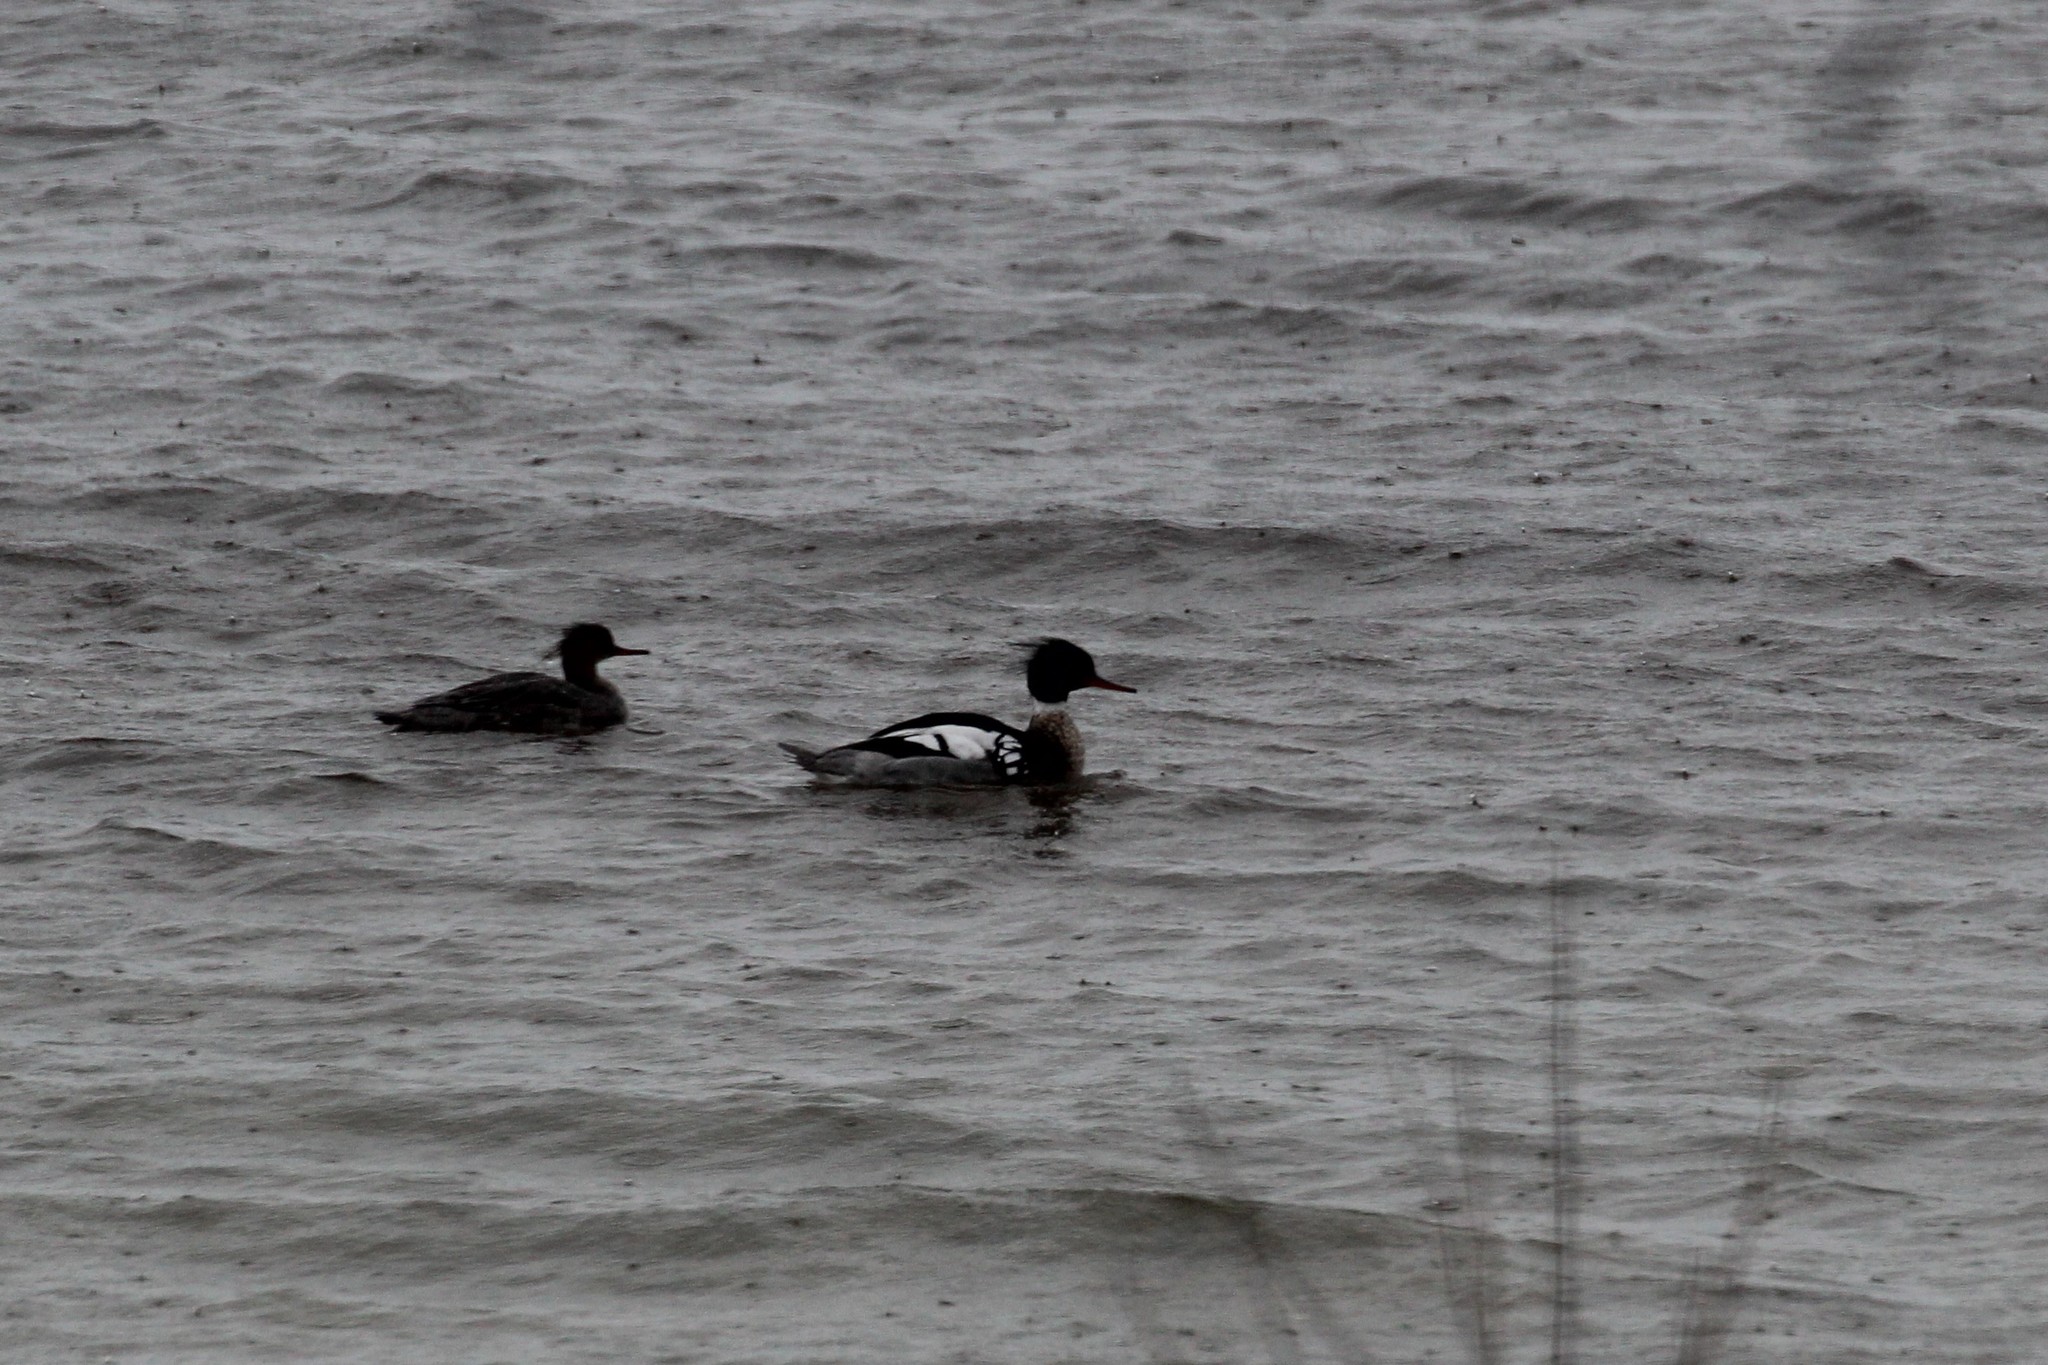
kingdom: Animalia
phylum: Chordata
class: Aves
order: Anseriformes
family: Anatidae
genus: Mergus
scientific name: Mergus serrator
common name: Red-breasted merganser
